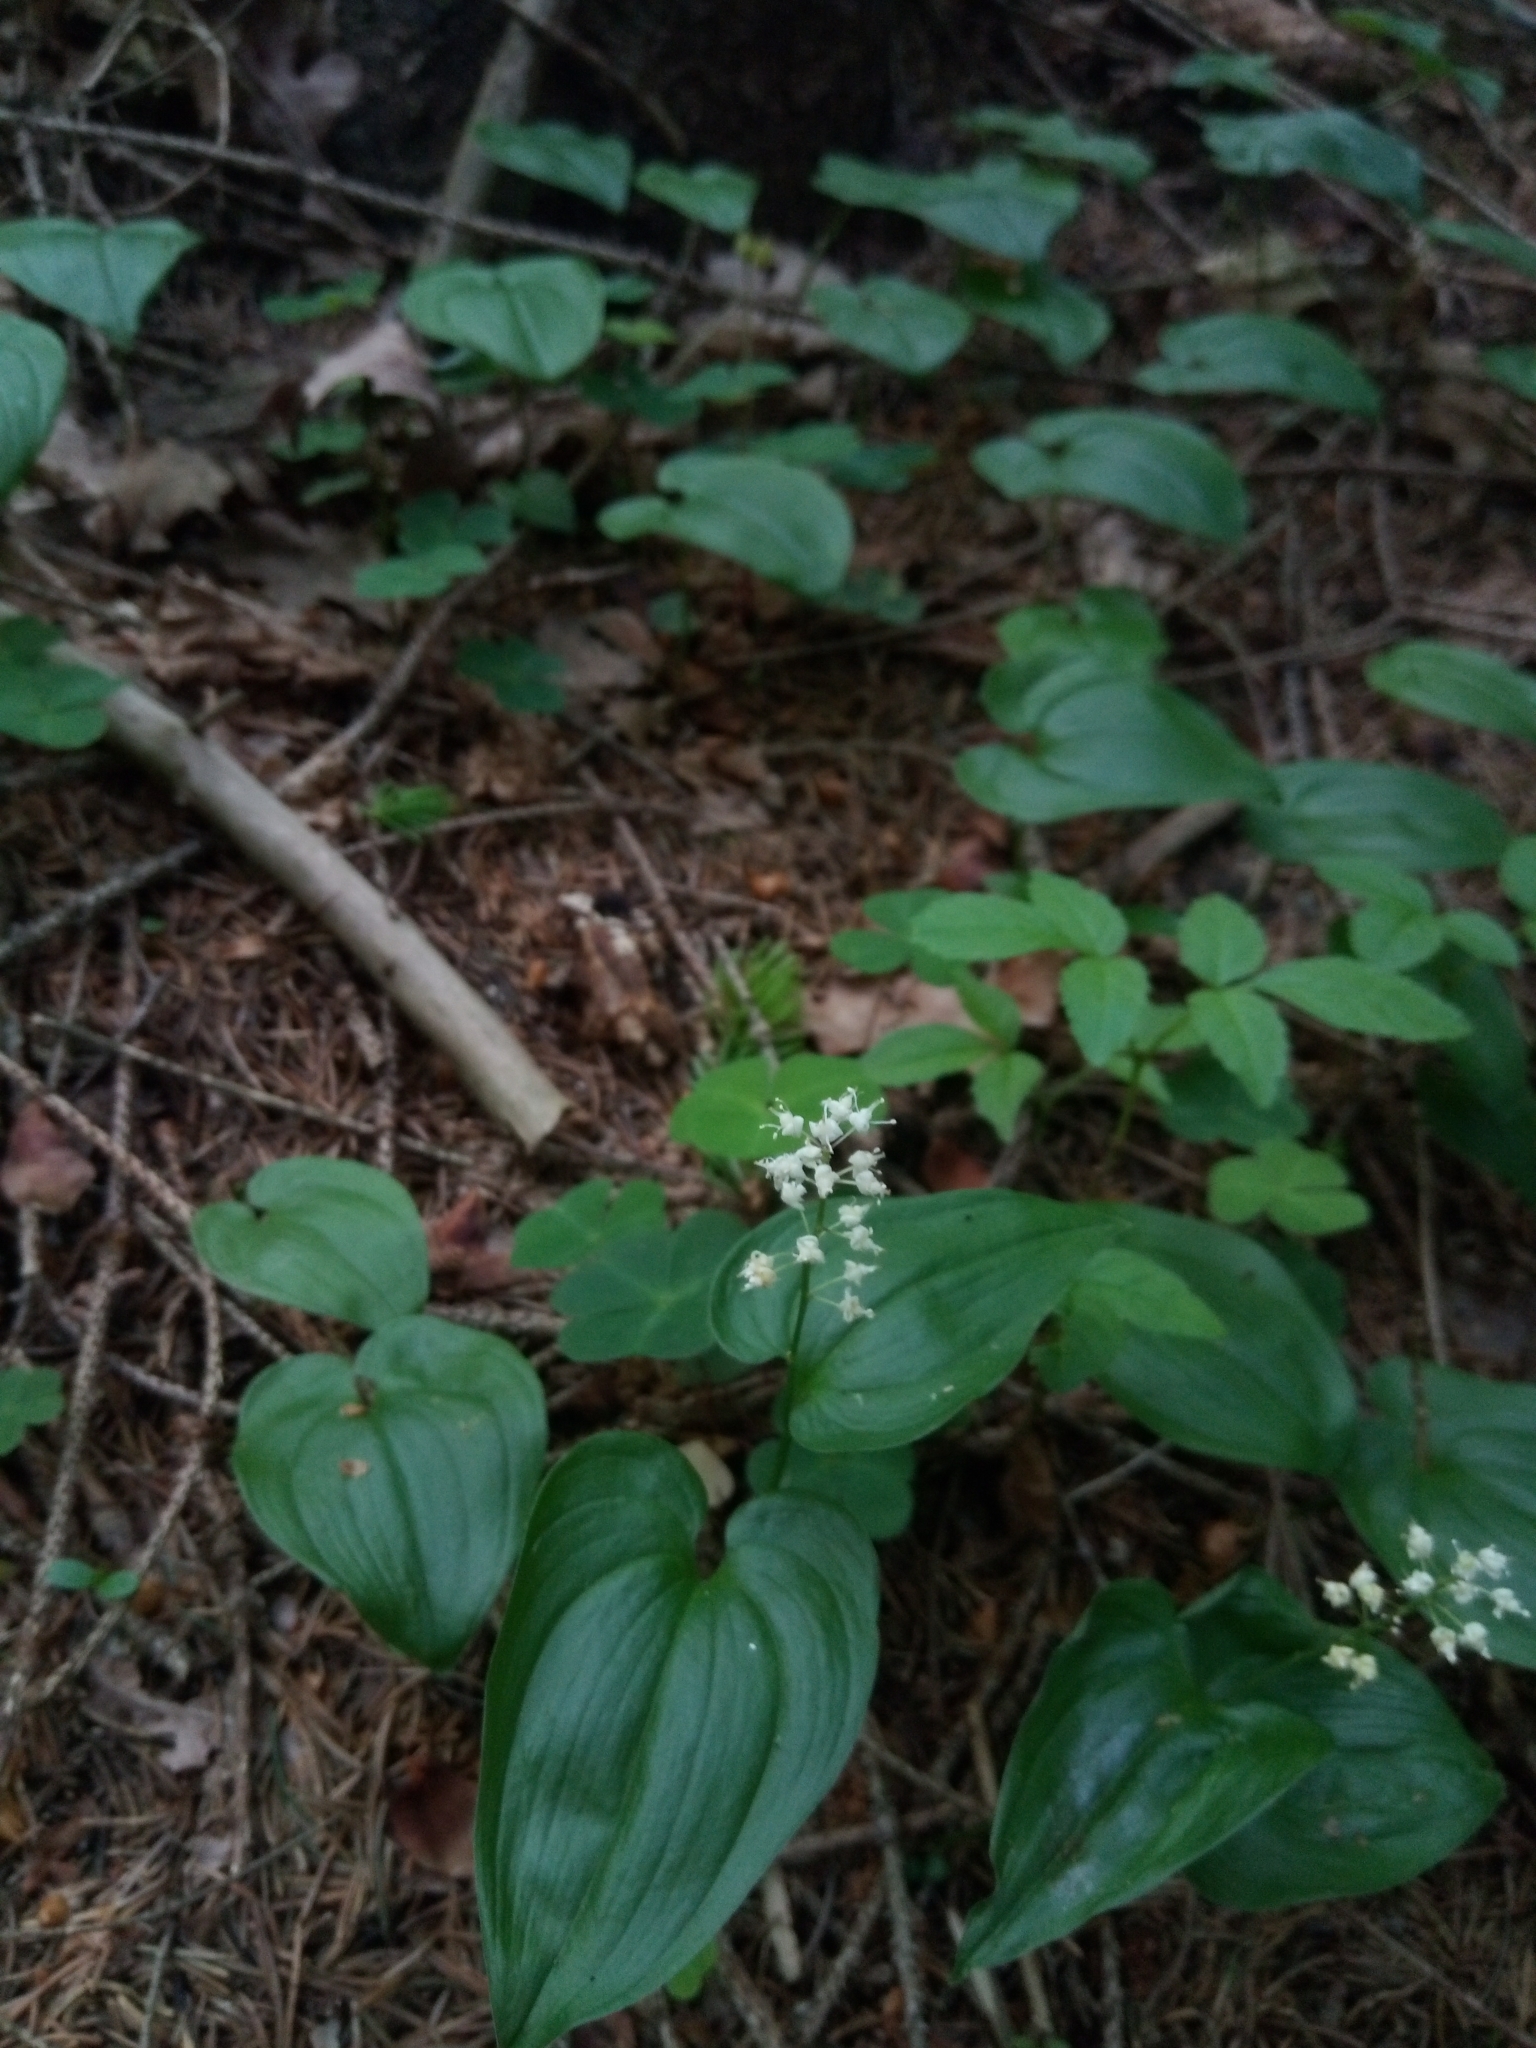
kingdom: Plantae
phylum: Tracheophyta
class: Liliopsida
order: Asparagales
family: Asparagaceae
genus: Maianthemum
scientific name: Maianthemum bifolium
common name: May lily
